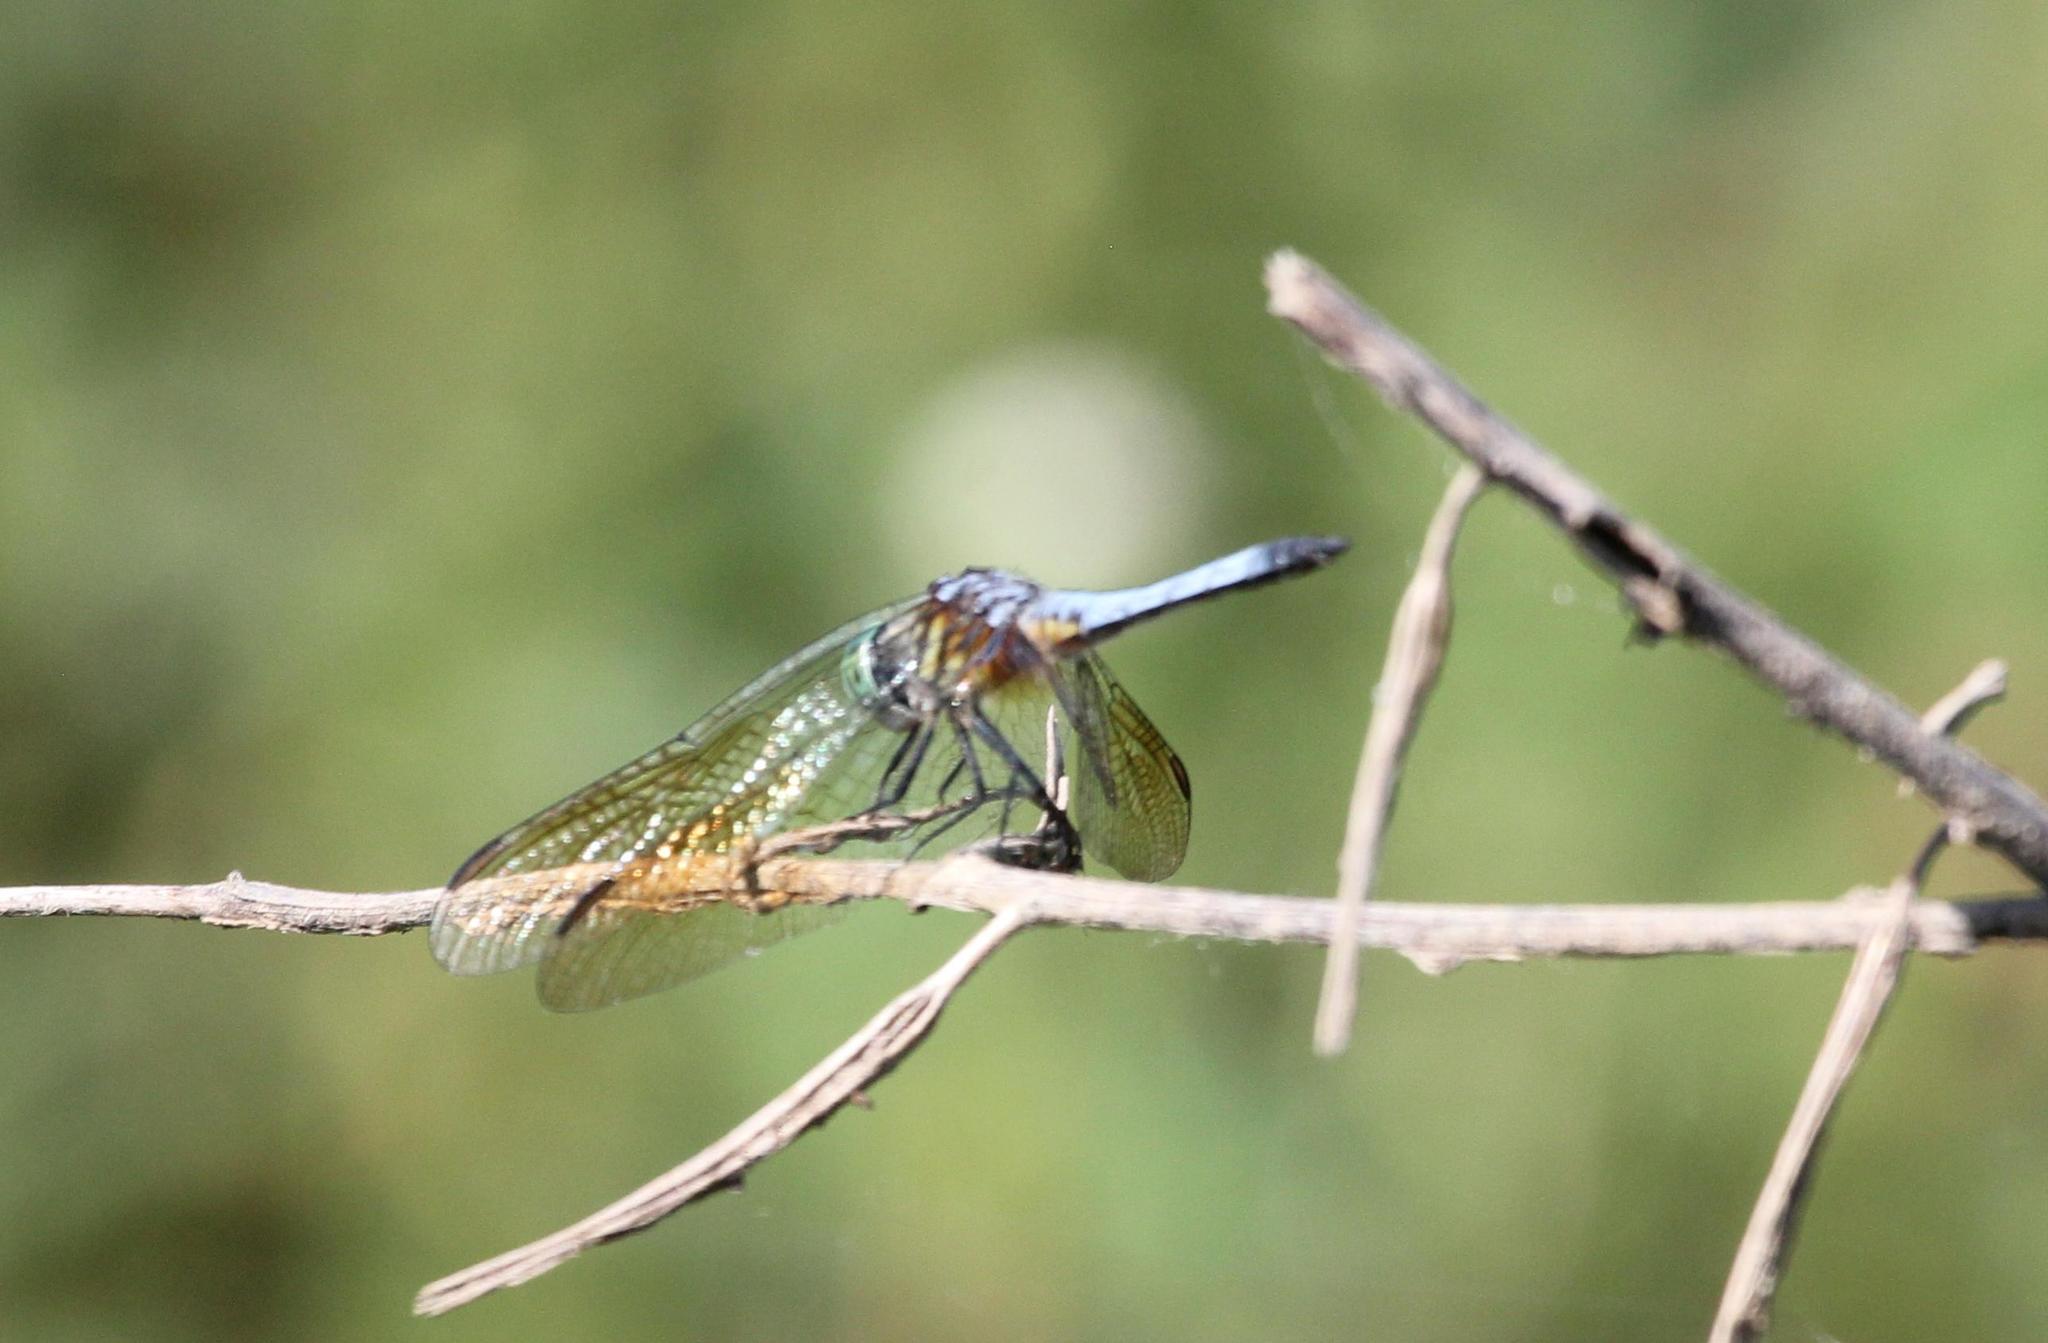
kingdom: Animalia
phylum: Arthropoda
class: Insecta
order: Odonata
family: Libellulidae
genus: Pachydiplax
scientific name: Pachydiplax longipennis
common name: Blue dasher
